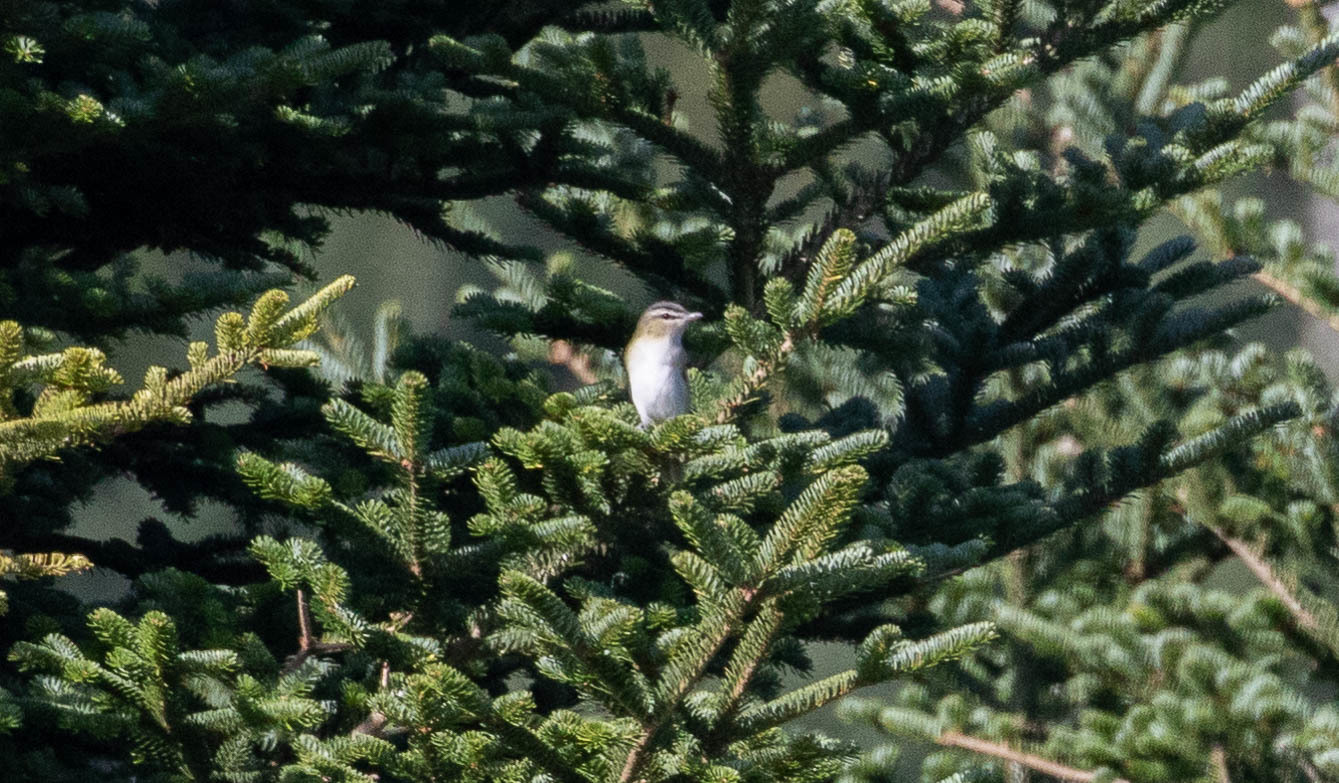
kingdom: Animalia
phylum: Chordata
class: Aves
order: Passeriformes
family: Vireonidae
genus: Vireo
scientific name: Vireo olivaceus
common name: Red-eyed vireo
